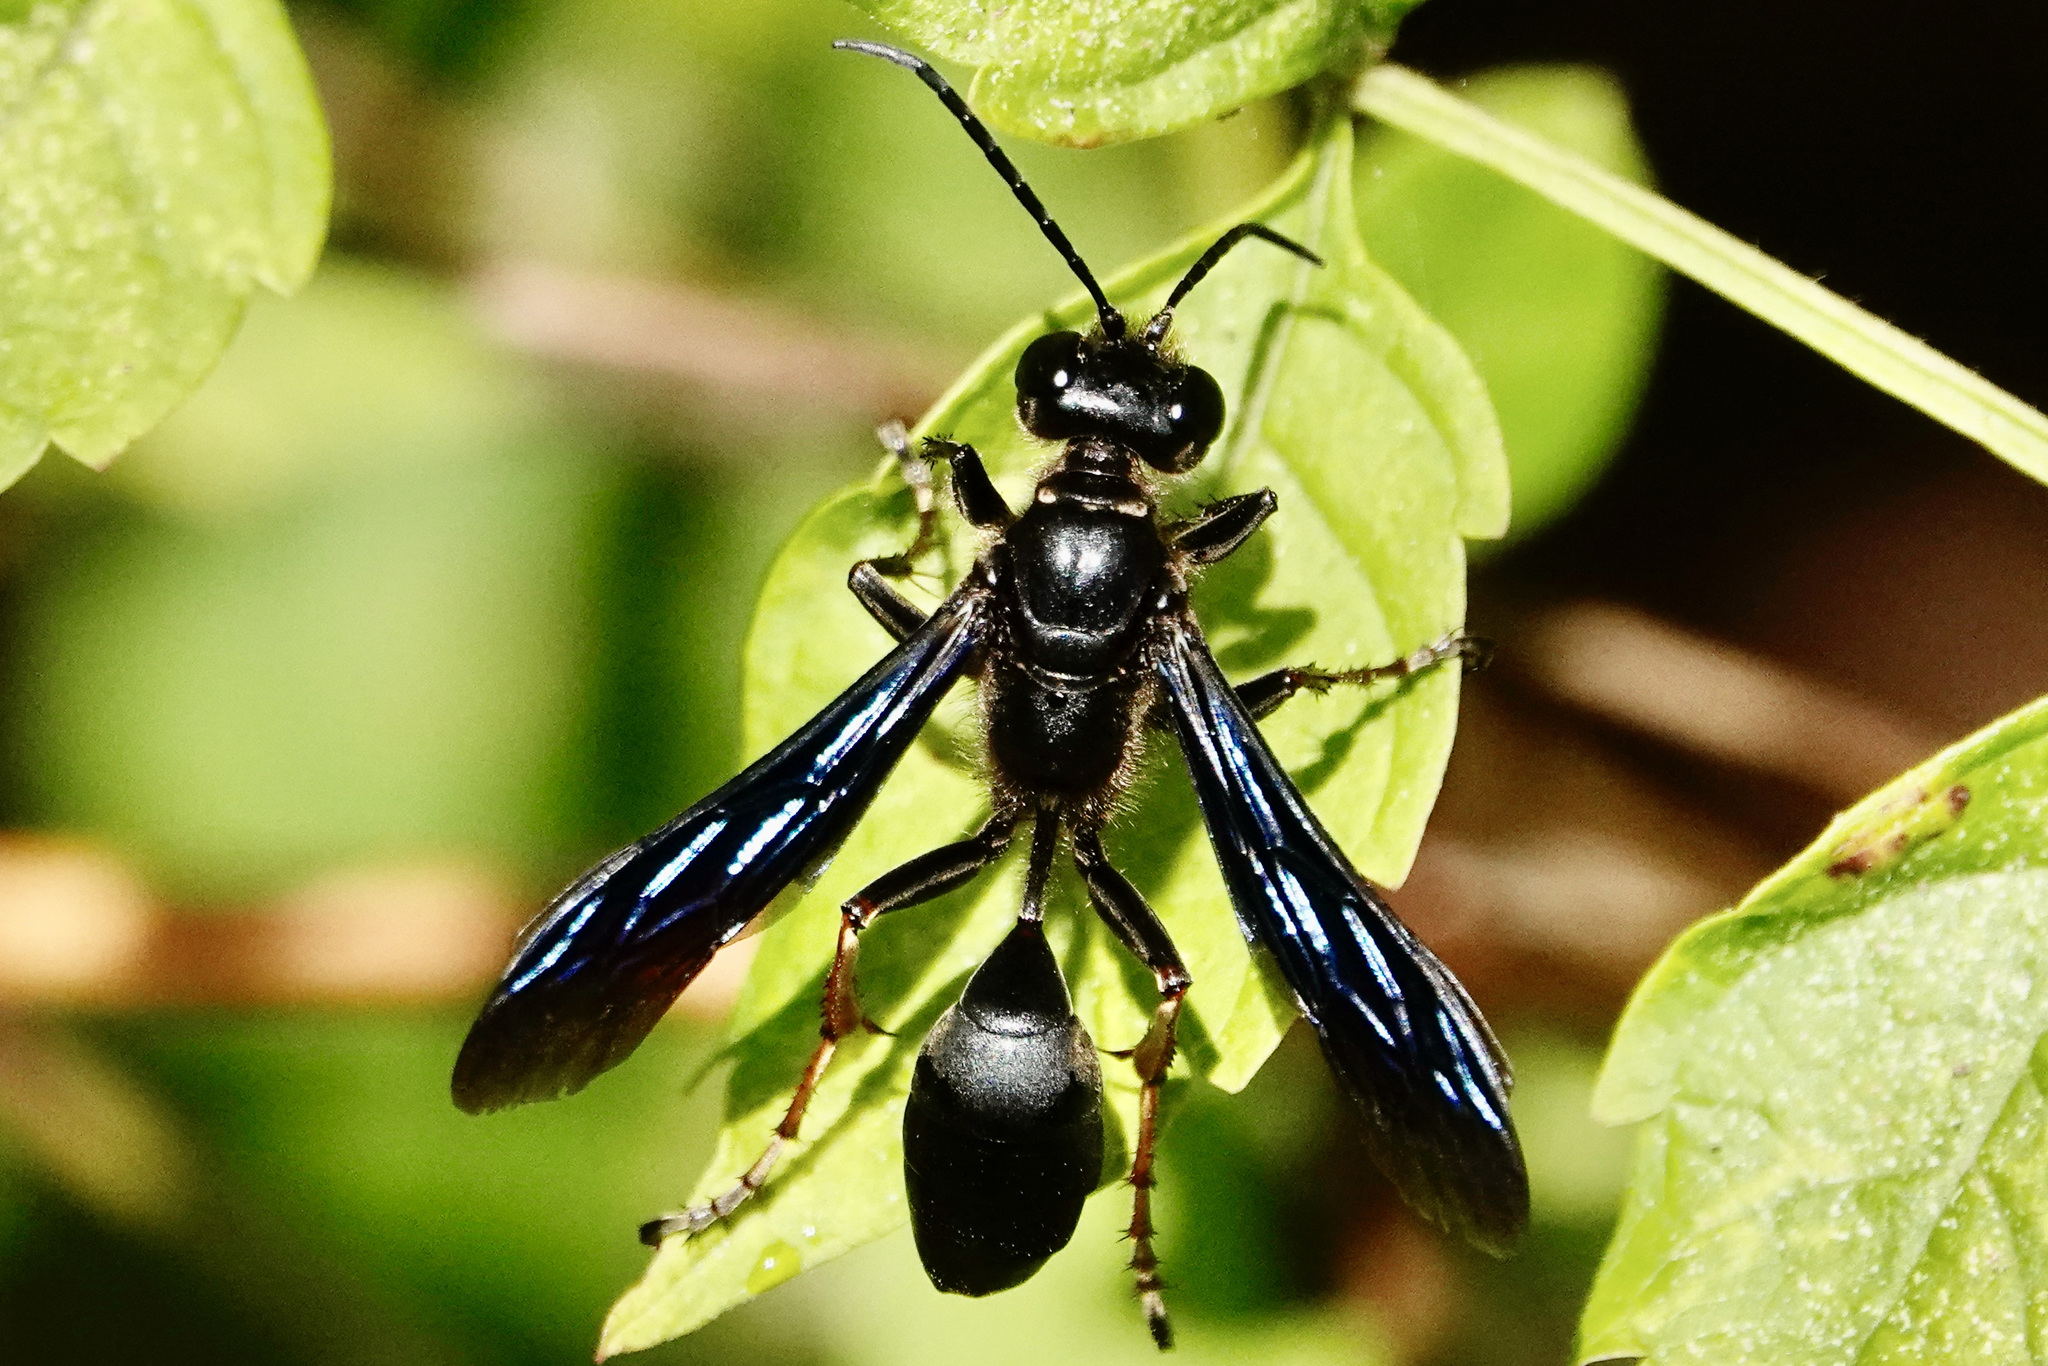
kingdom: Animalia
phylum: Arthropoda
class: Insecta
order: Hymenoptera
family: Sphecidae
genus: Isodontia
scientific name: Isodontia auripes
